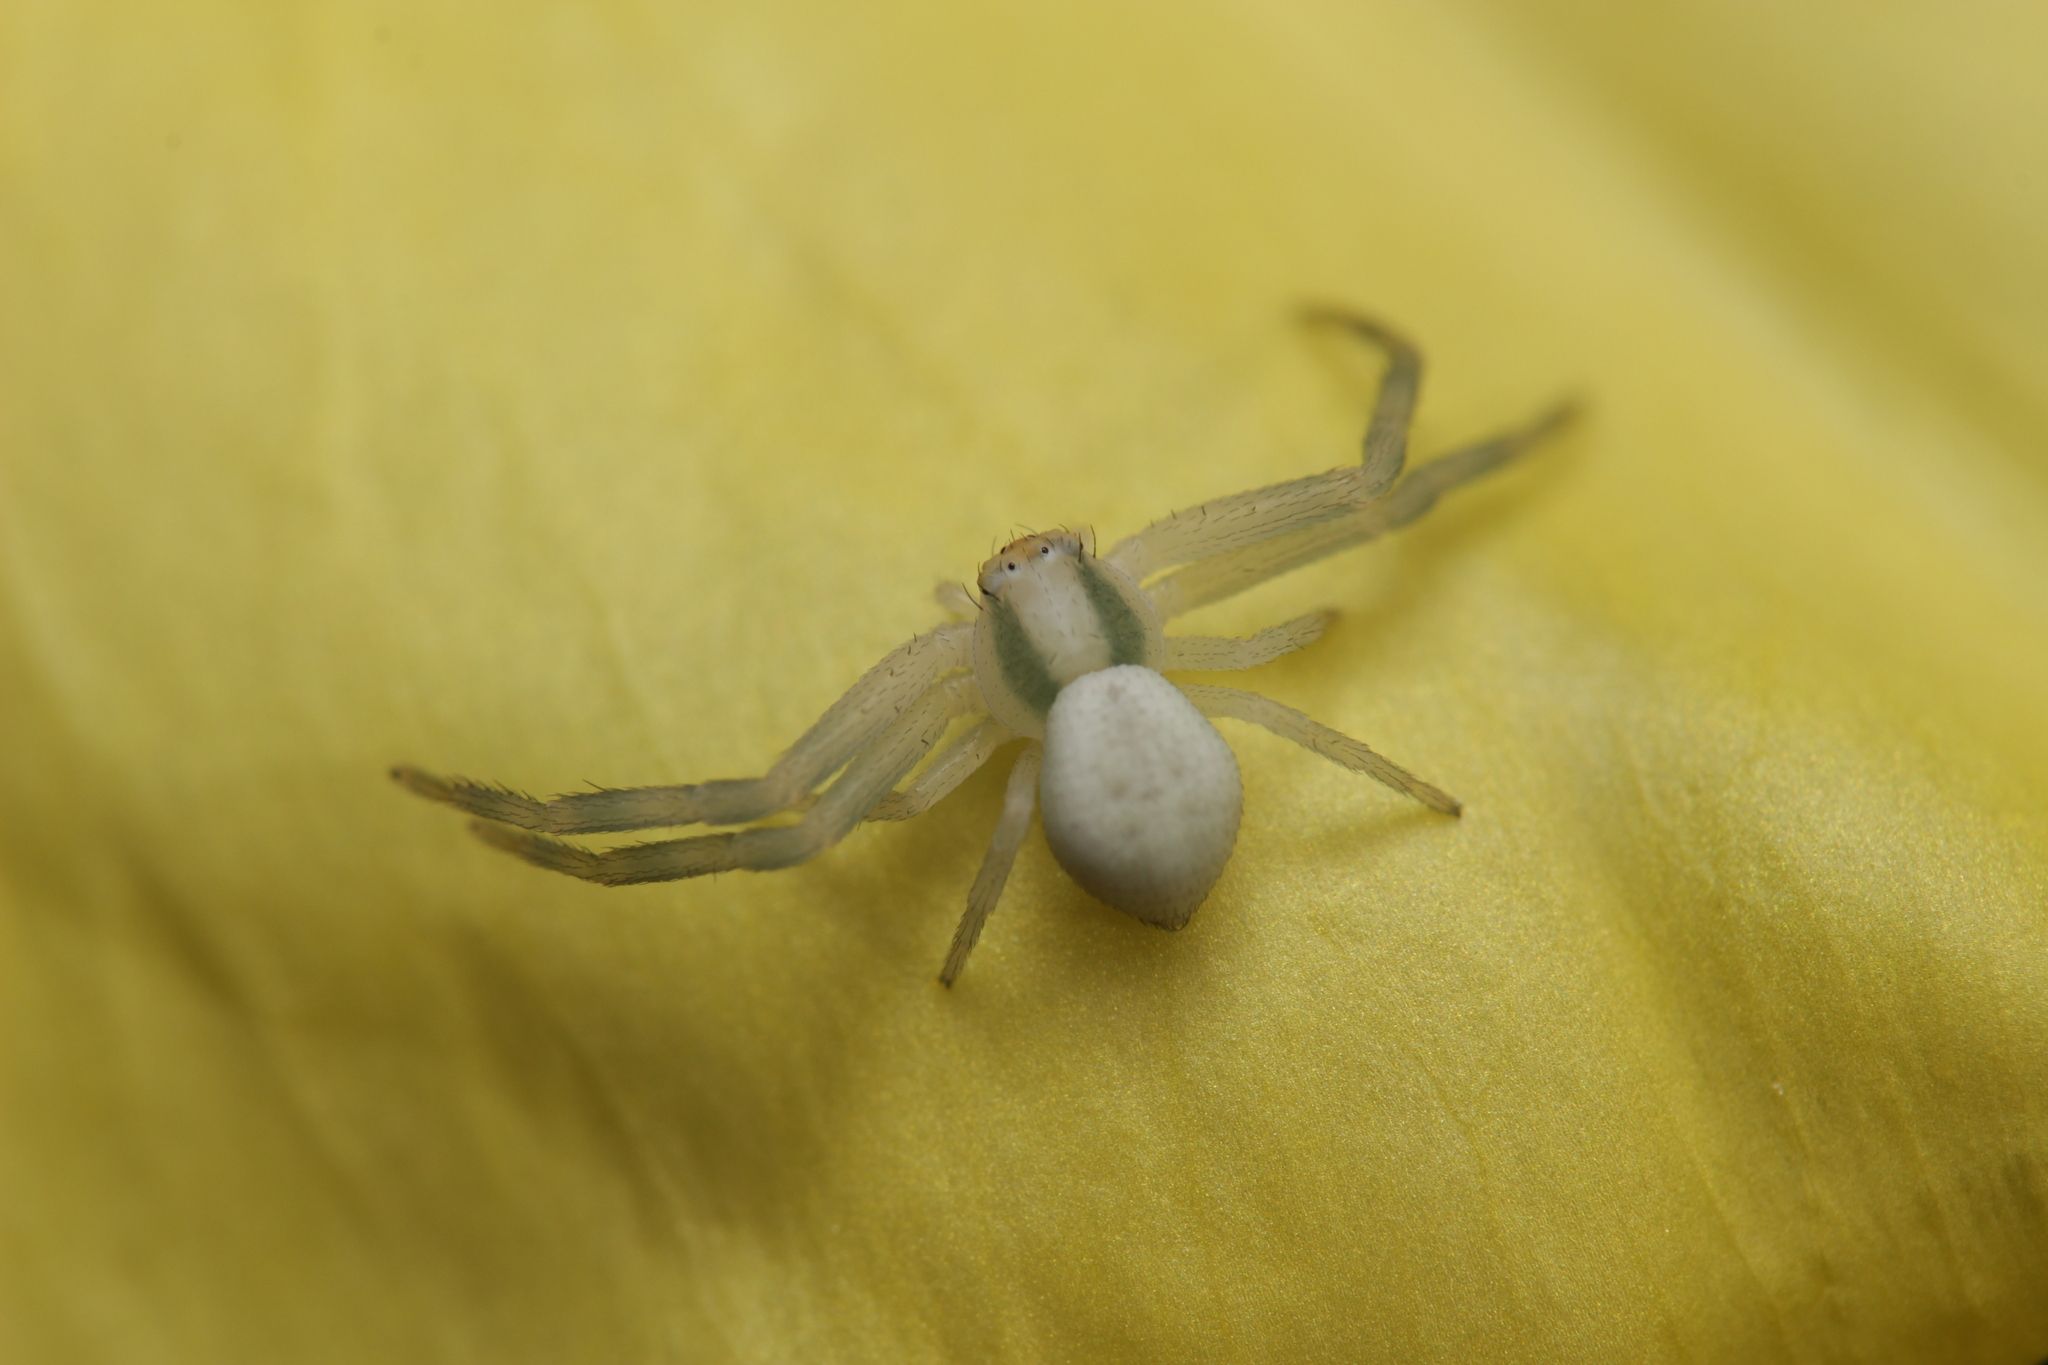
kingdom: Animalia
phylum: Arthropoda
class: Arachnida
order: Araneae
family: Thomisidae
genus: Misumena
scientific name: Misumena vatia
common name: Goldenrod crab spider
